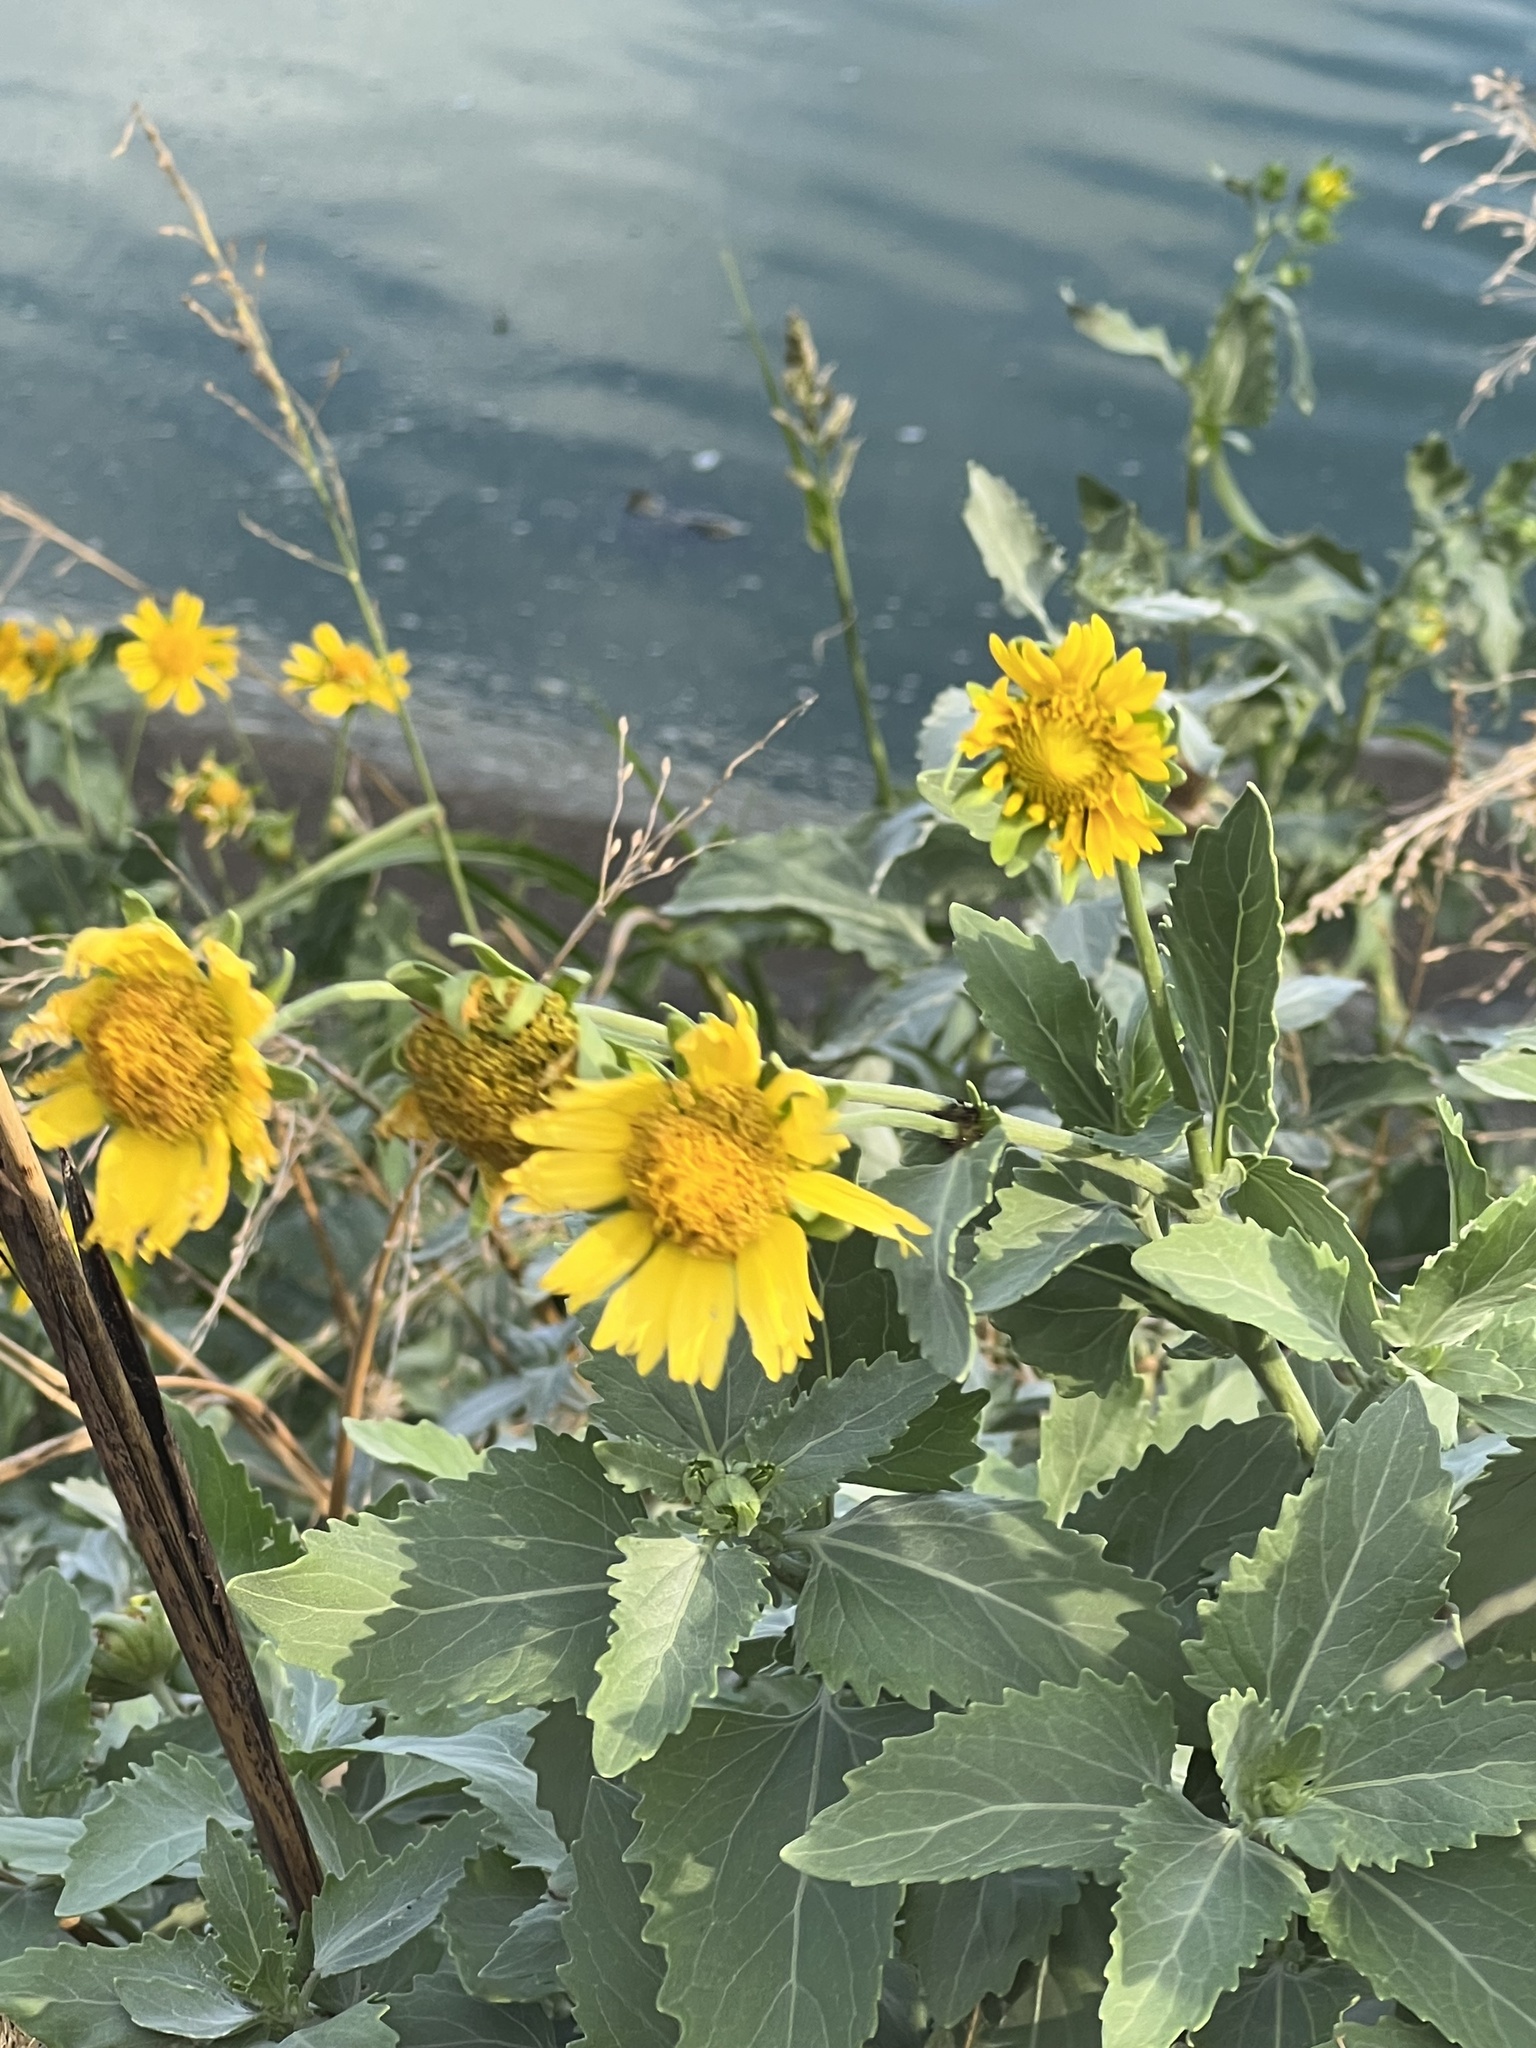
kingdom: Plantae
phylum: Tracheophyta
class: Magnoliopsida
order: Asterales
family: Asteraceae
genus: Verbesina
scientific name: Verbesina encelioides
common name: Golden crownbeard
